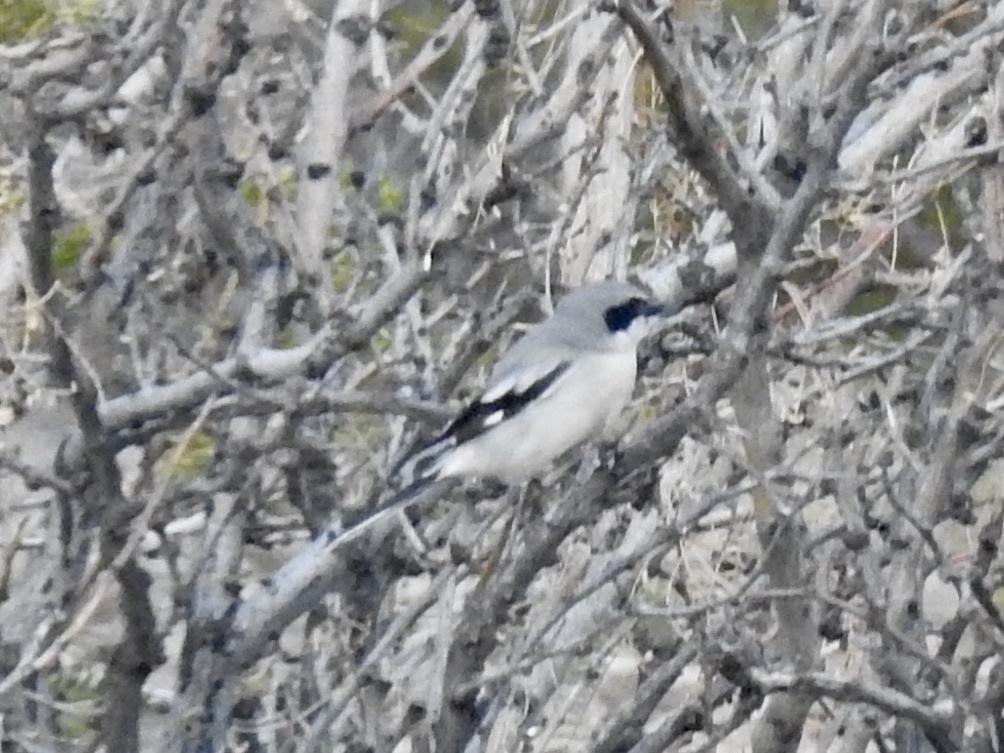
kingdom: Animalia
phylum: Chordata
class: Aves
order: Passeriformes
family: Laniidae
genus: Lanius
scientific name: Lanius ludovicianus
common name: Loggerhead shrike
